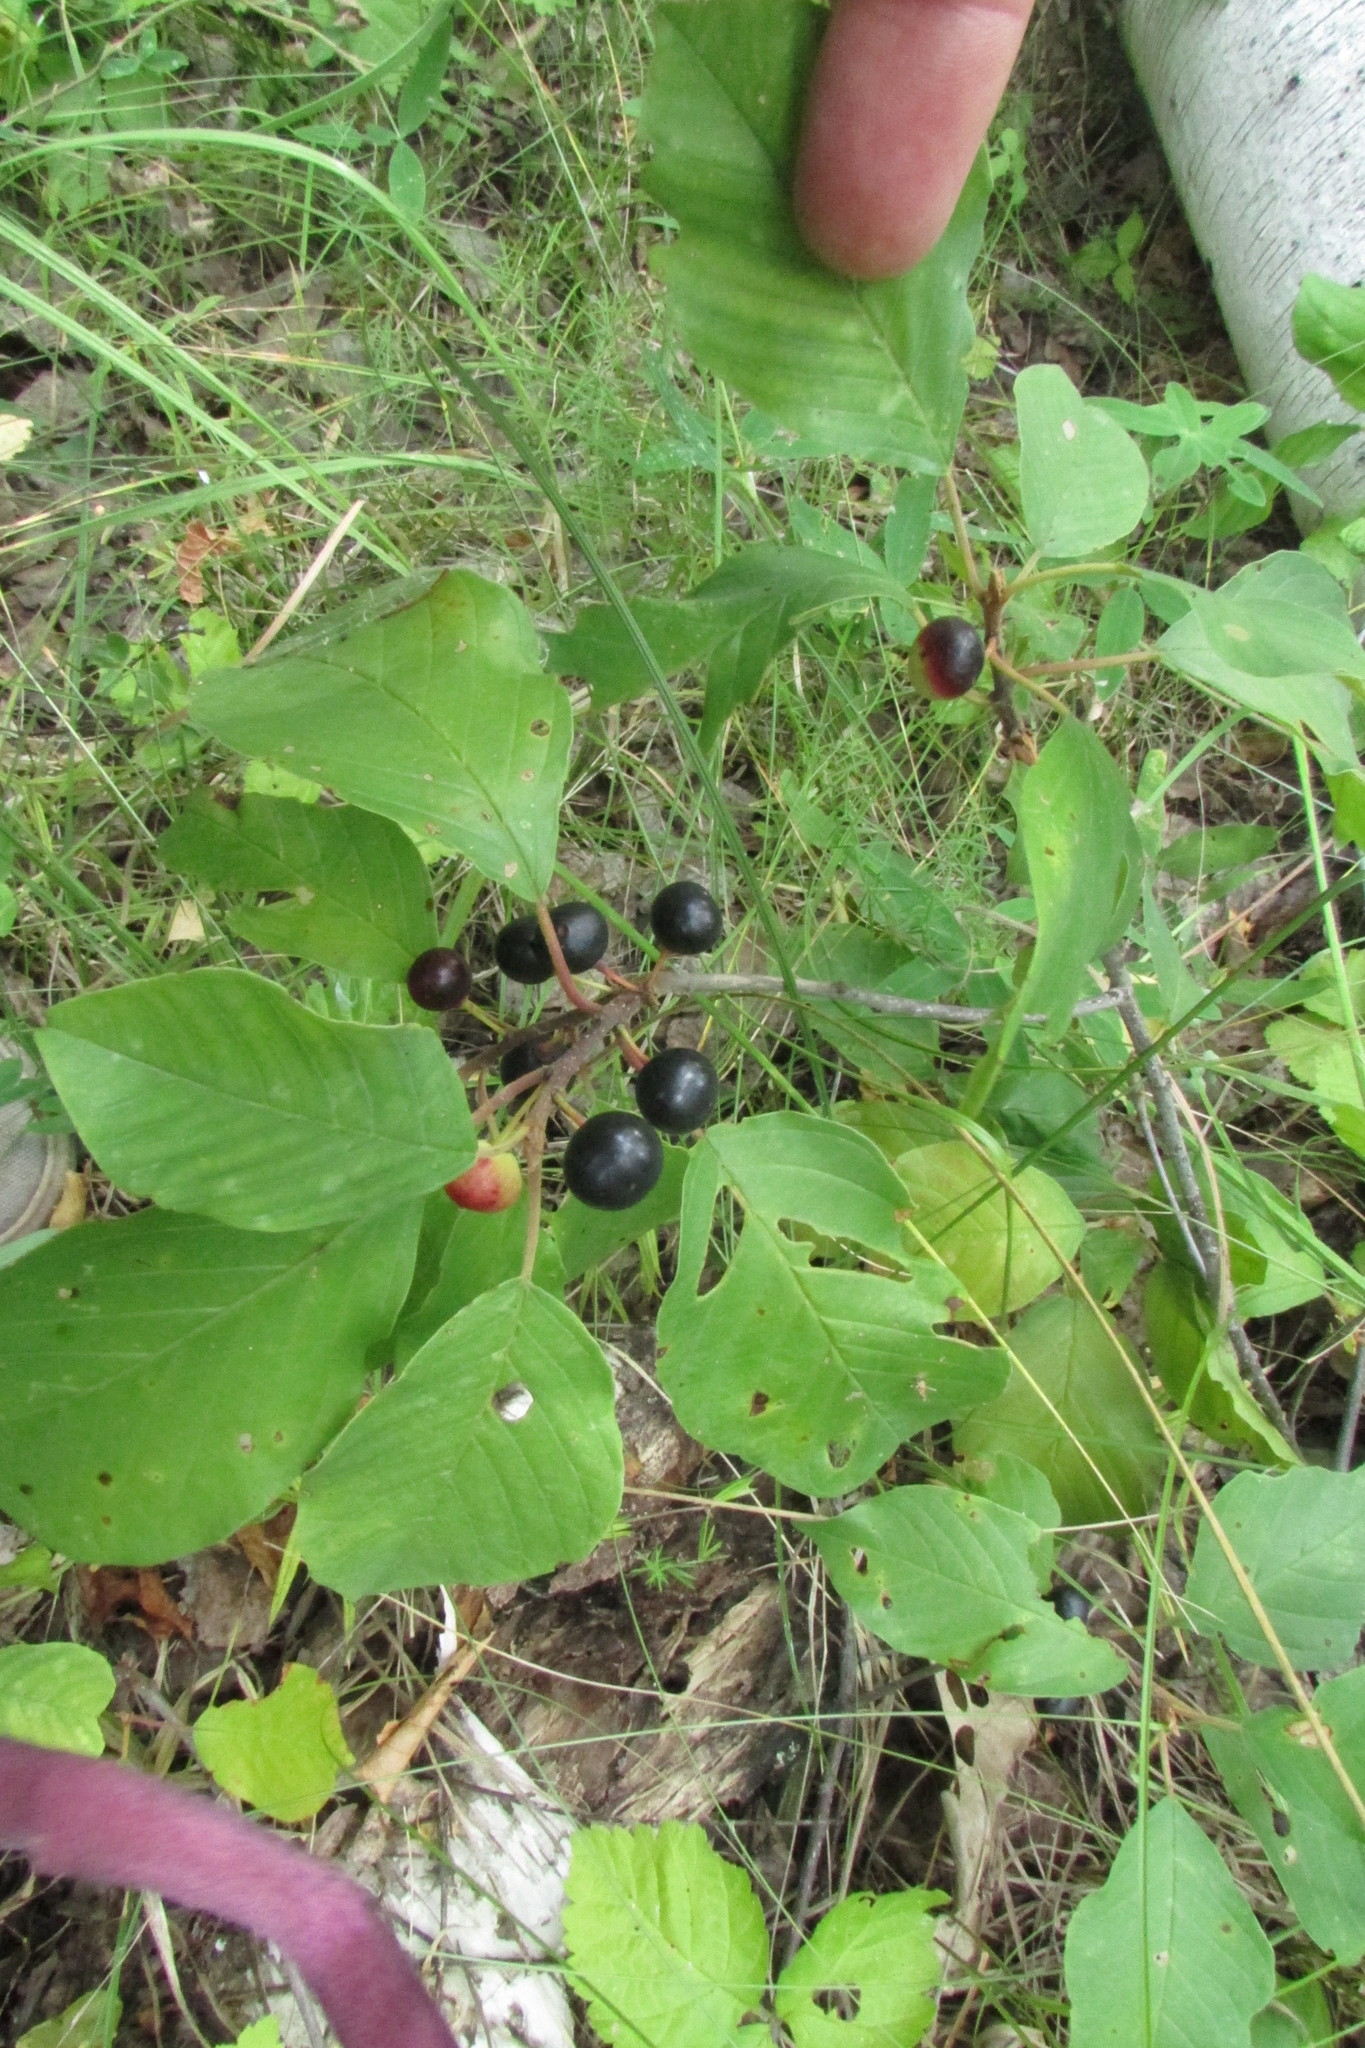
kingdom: Plantae
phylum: Tracheophyta
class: Magnoliopsida
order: Rosales
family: Rhamnaceae
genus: Frangula
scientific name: Frangula alnus
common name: Alder buckthorn
